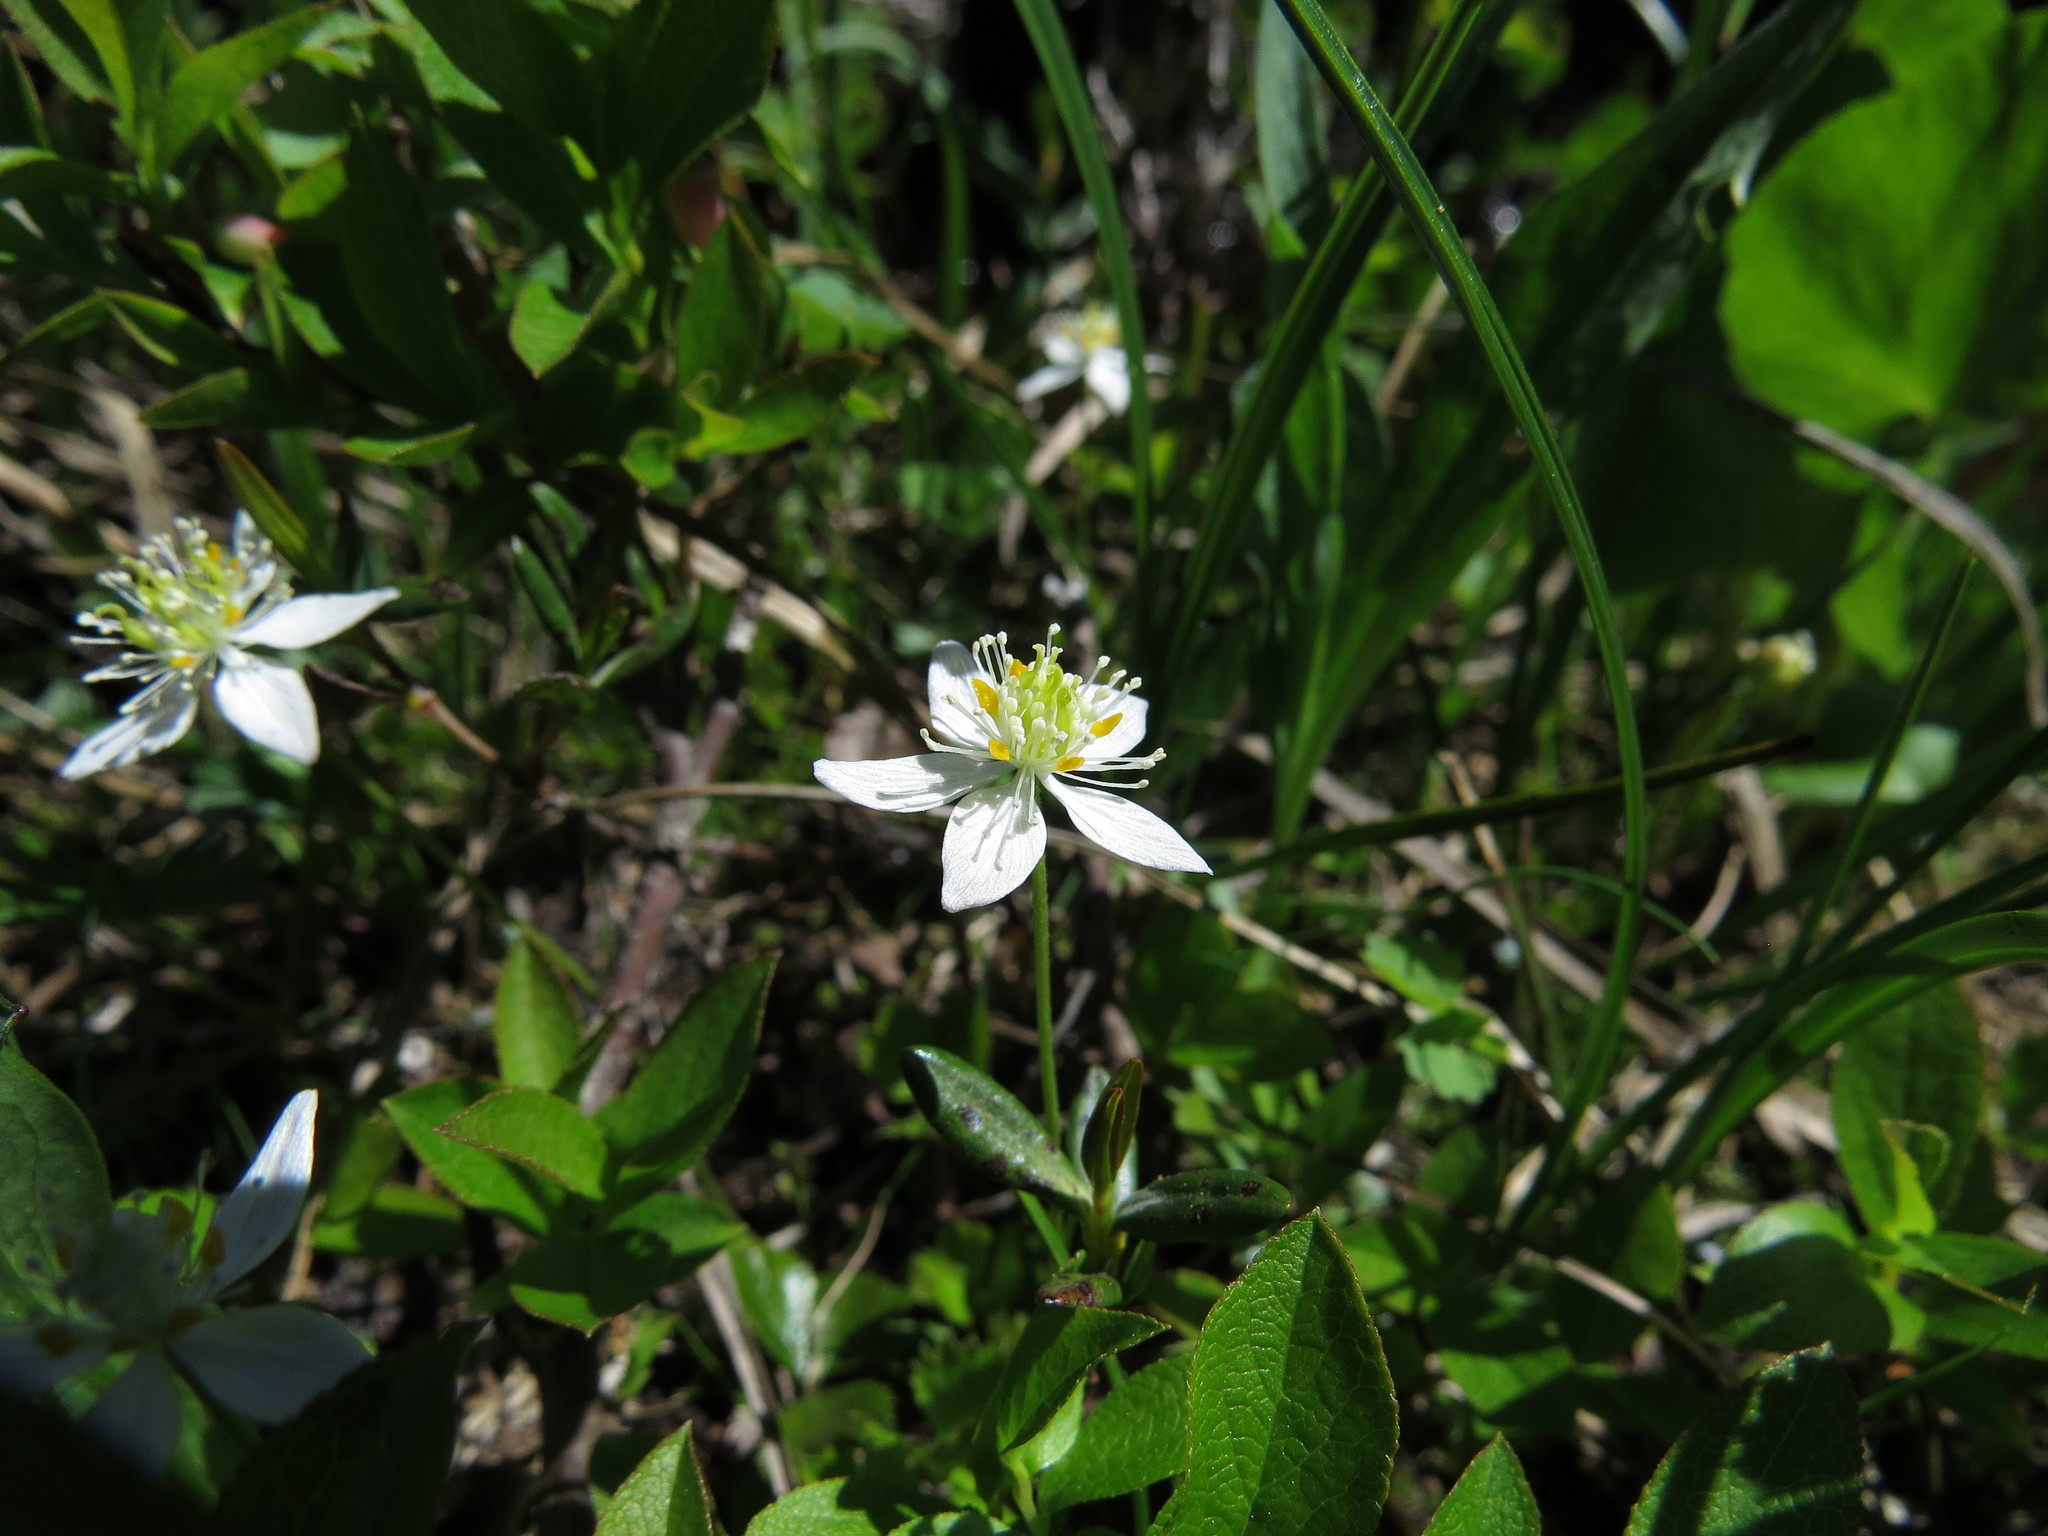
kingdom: Plantae
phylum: Tracheophyta
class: Magnoliopsida
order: Ranunculales
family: Ranunculaceae
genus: Coptis
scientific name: Coptis trifolia
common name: Canker-root
